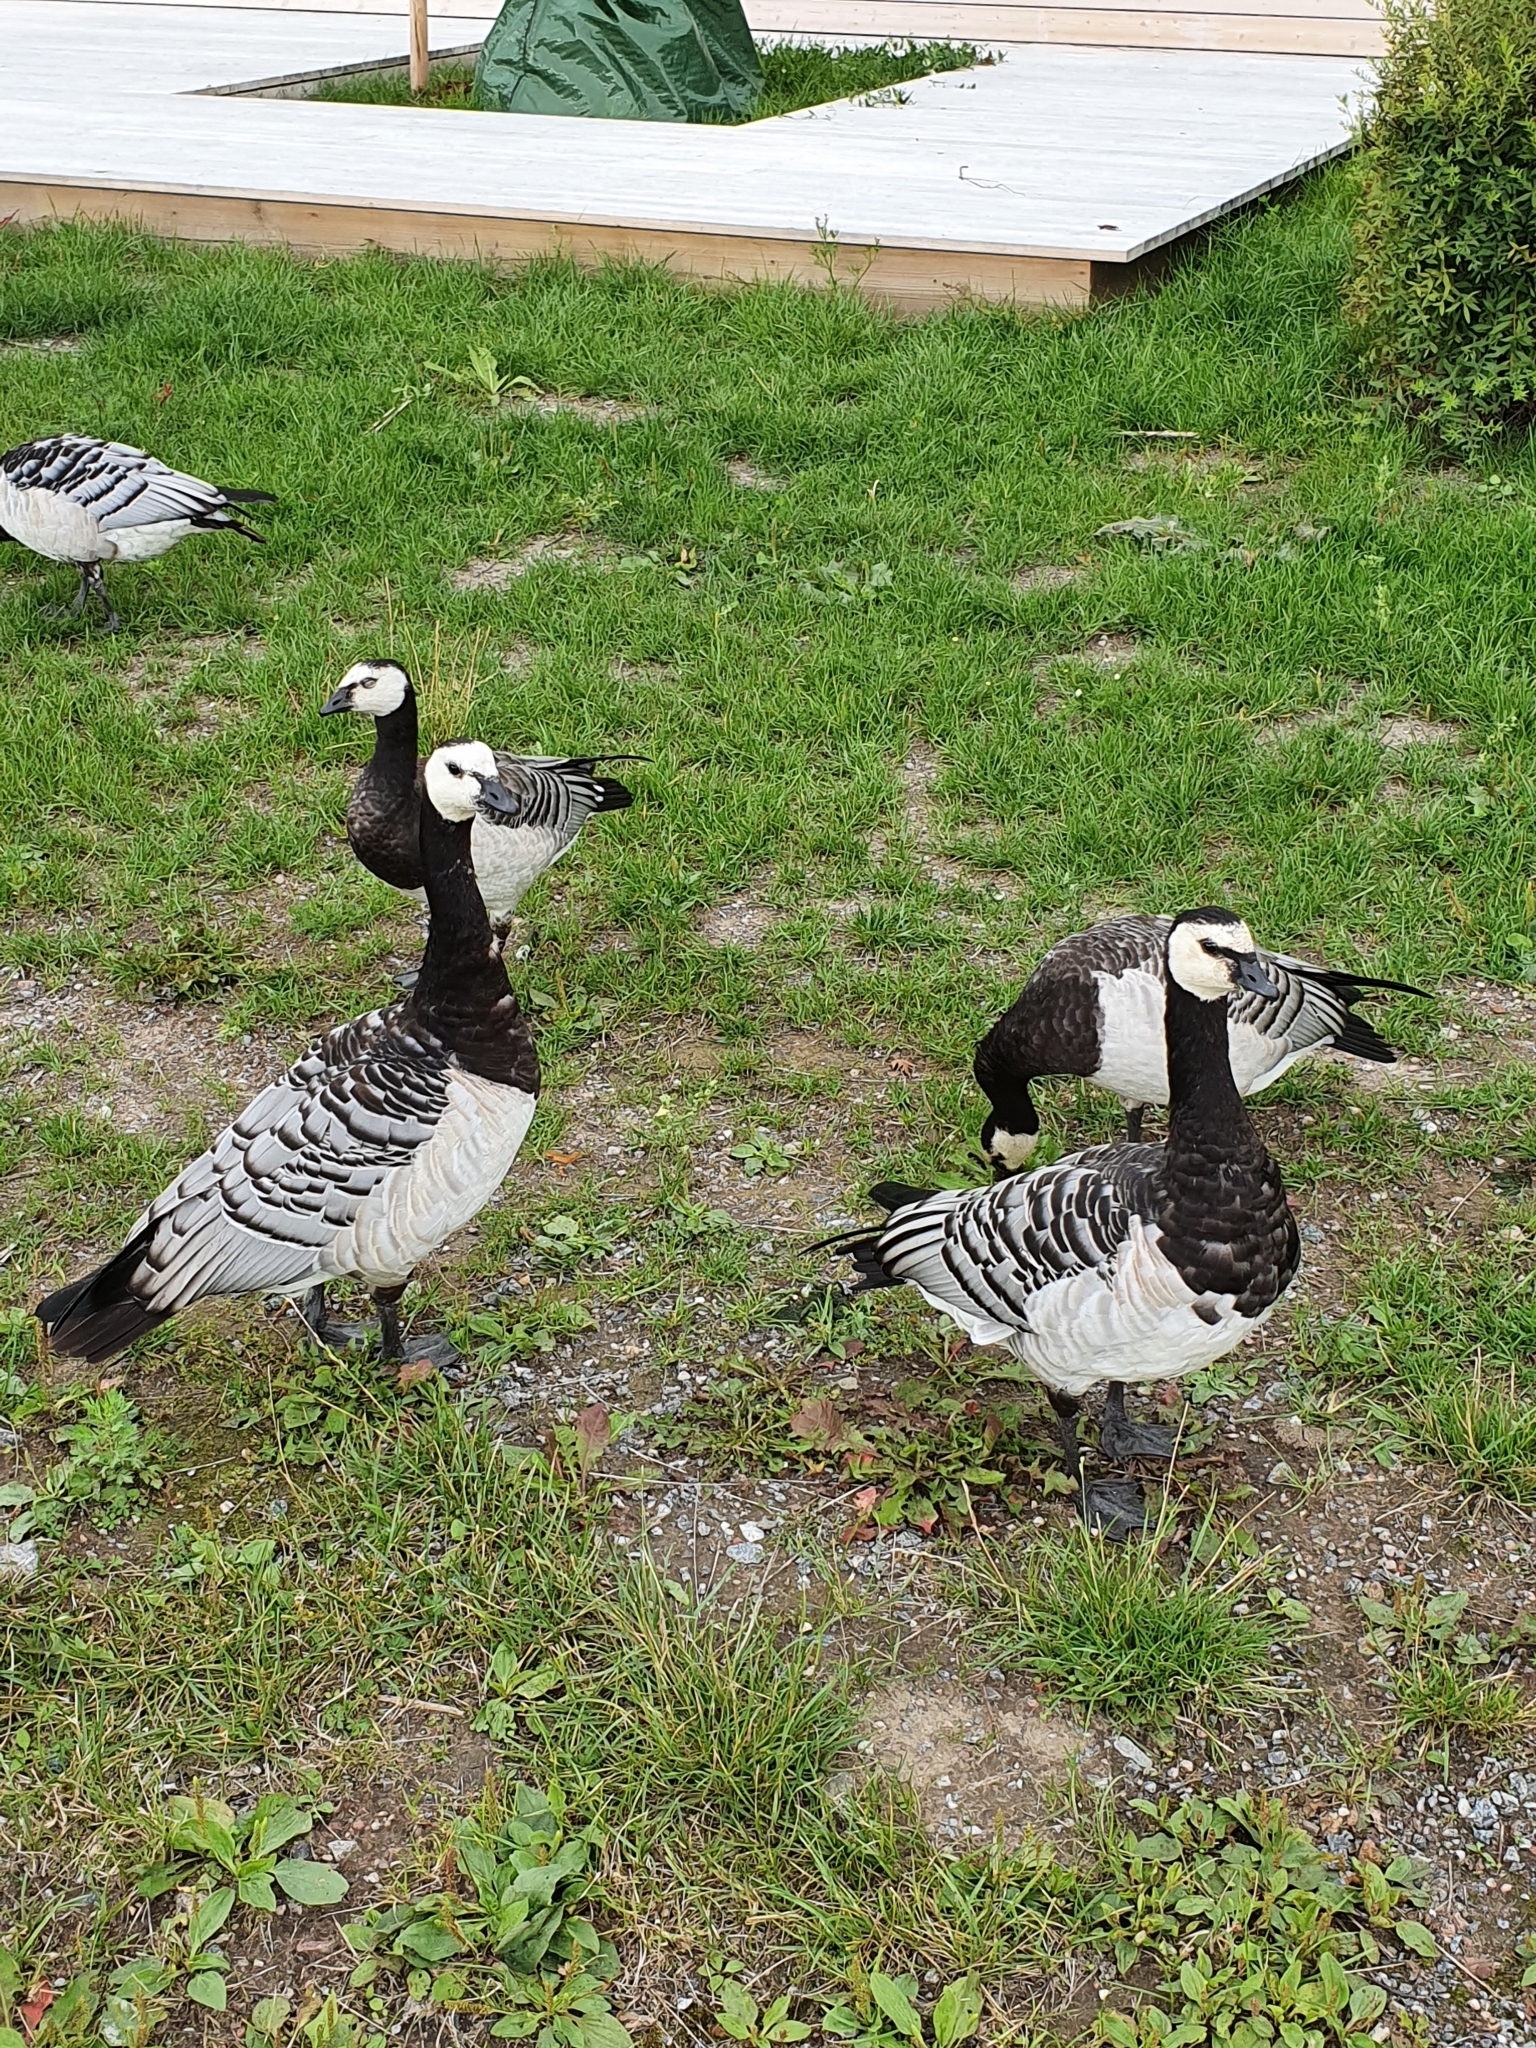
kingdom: Animalia
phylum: Chordata
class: Aves
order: Anseriformes
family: Anatidae
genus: Branta
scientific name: Branta leucopsis
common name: Barnacle goose
